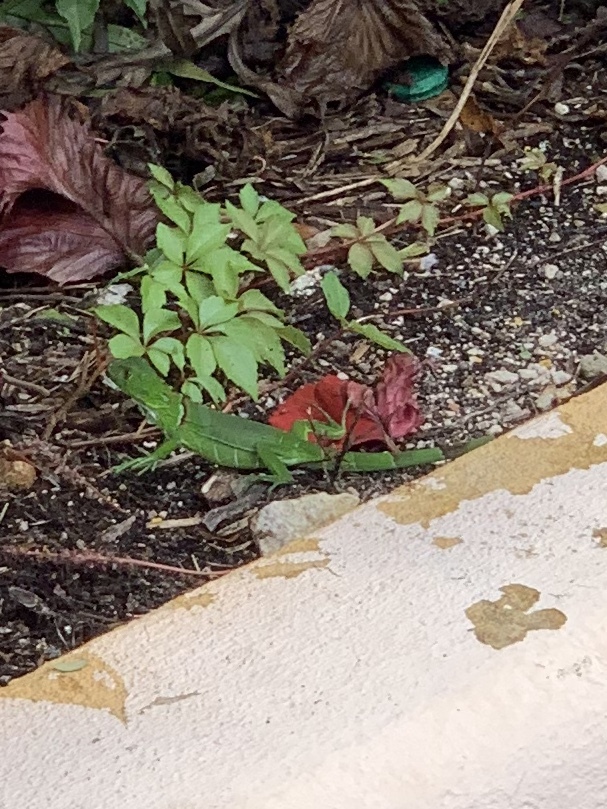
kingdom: Animalia
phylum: Chordata
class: Squamata
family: Iguanidae
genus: Iguana
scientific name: Iguana iguana
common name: Green iguana
